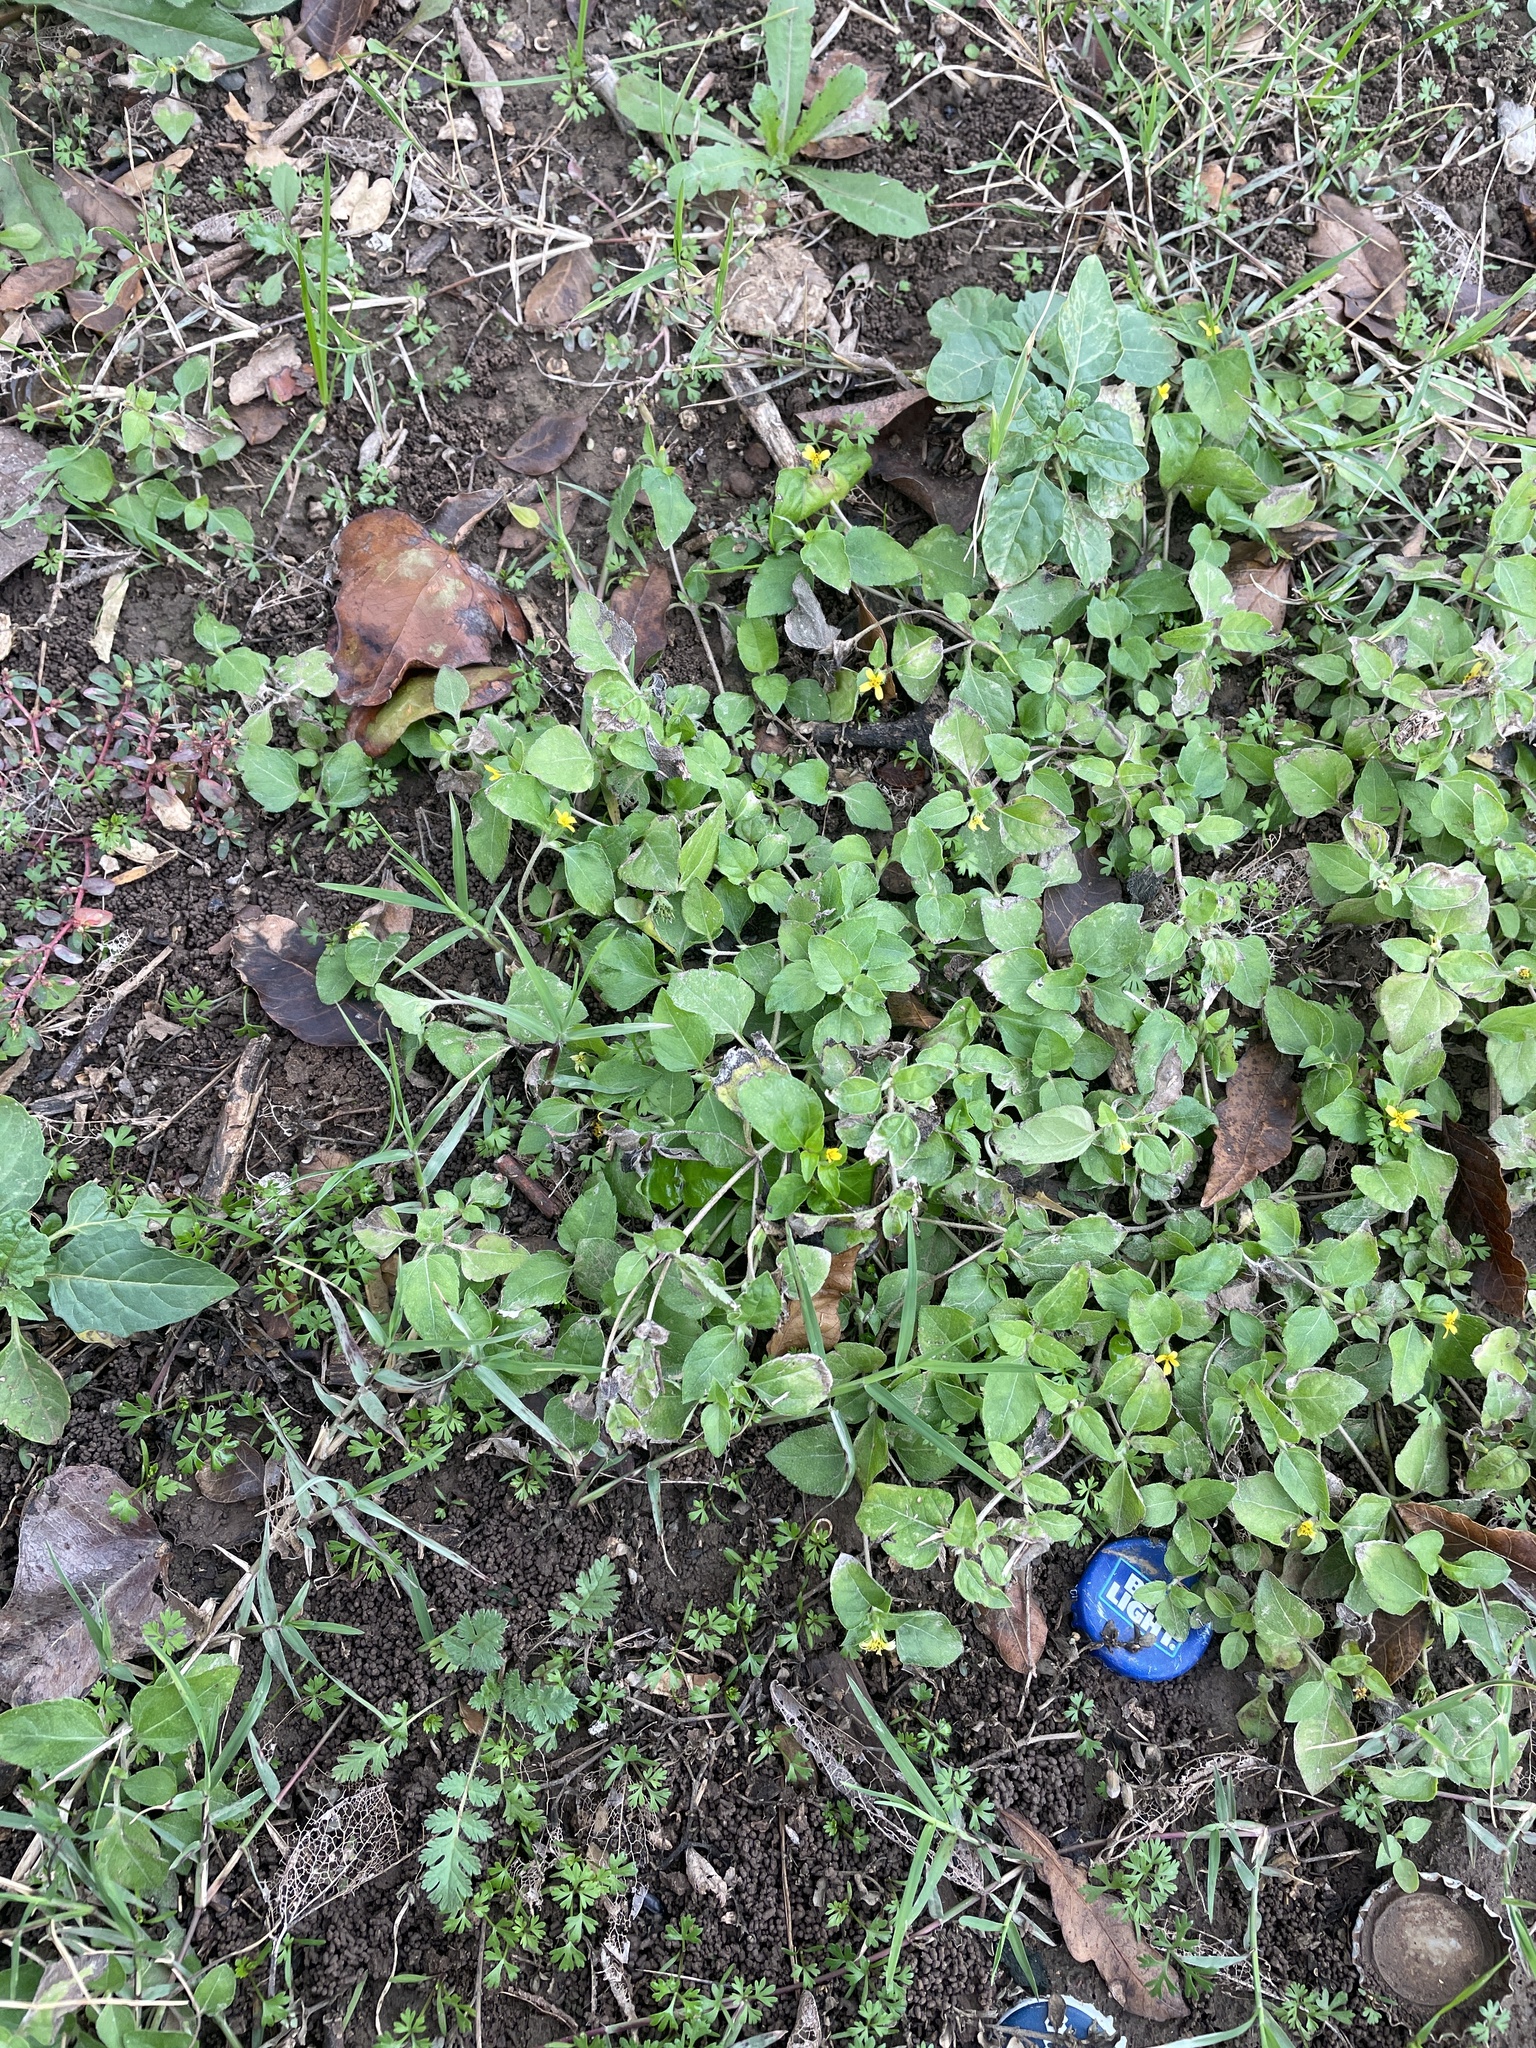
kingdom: Plantae
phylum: Tracheophyta
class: Magnoliopsida
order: Asterales
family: Asteraceae
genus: Calyptocarpus
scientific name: Calyptocarpus vialis
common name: Straggler daisy
